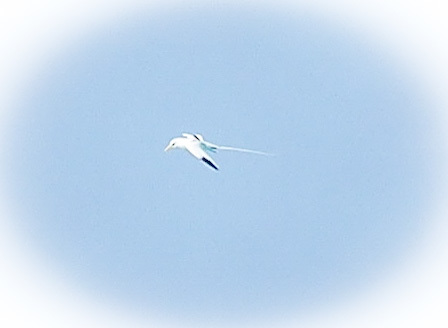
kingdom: Animalia
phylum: Chordata
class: Aves
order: Phaethontiformes
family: Phaethontidae
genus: Phaethon
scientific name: Phaethon lepturus
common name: White-tailed tropicbird
